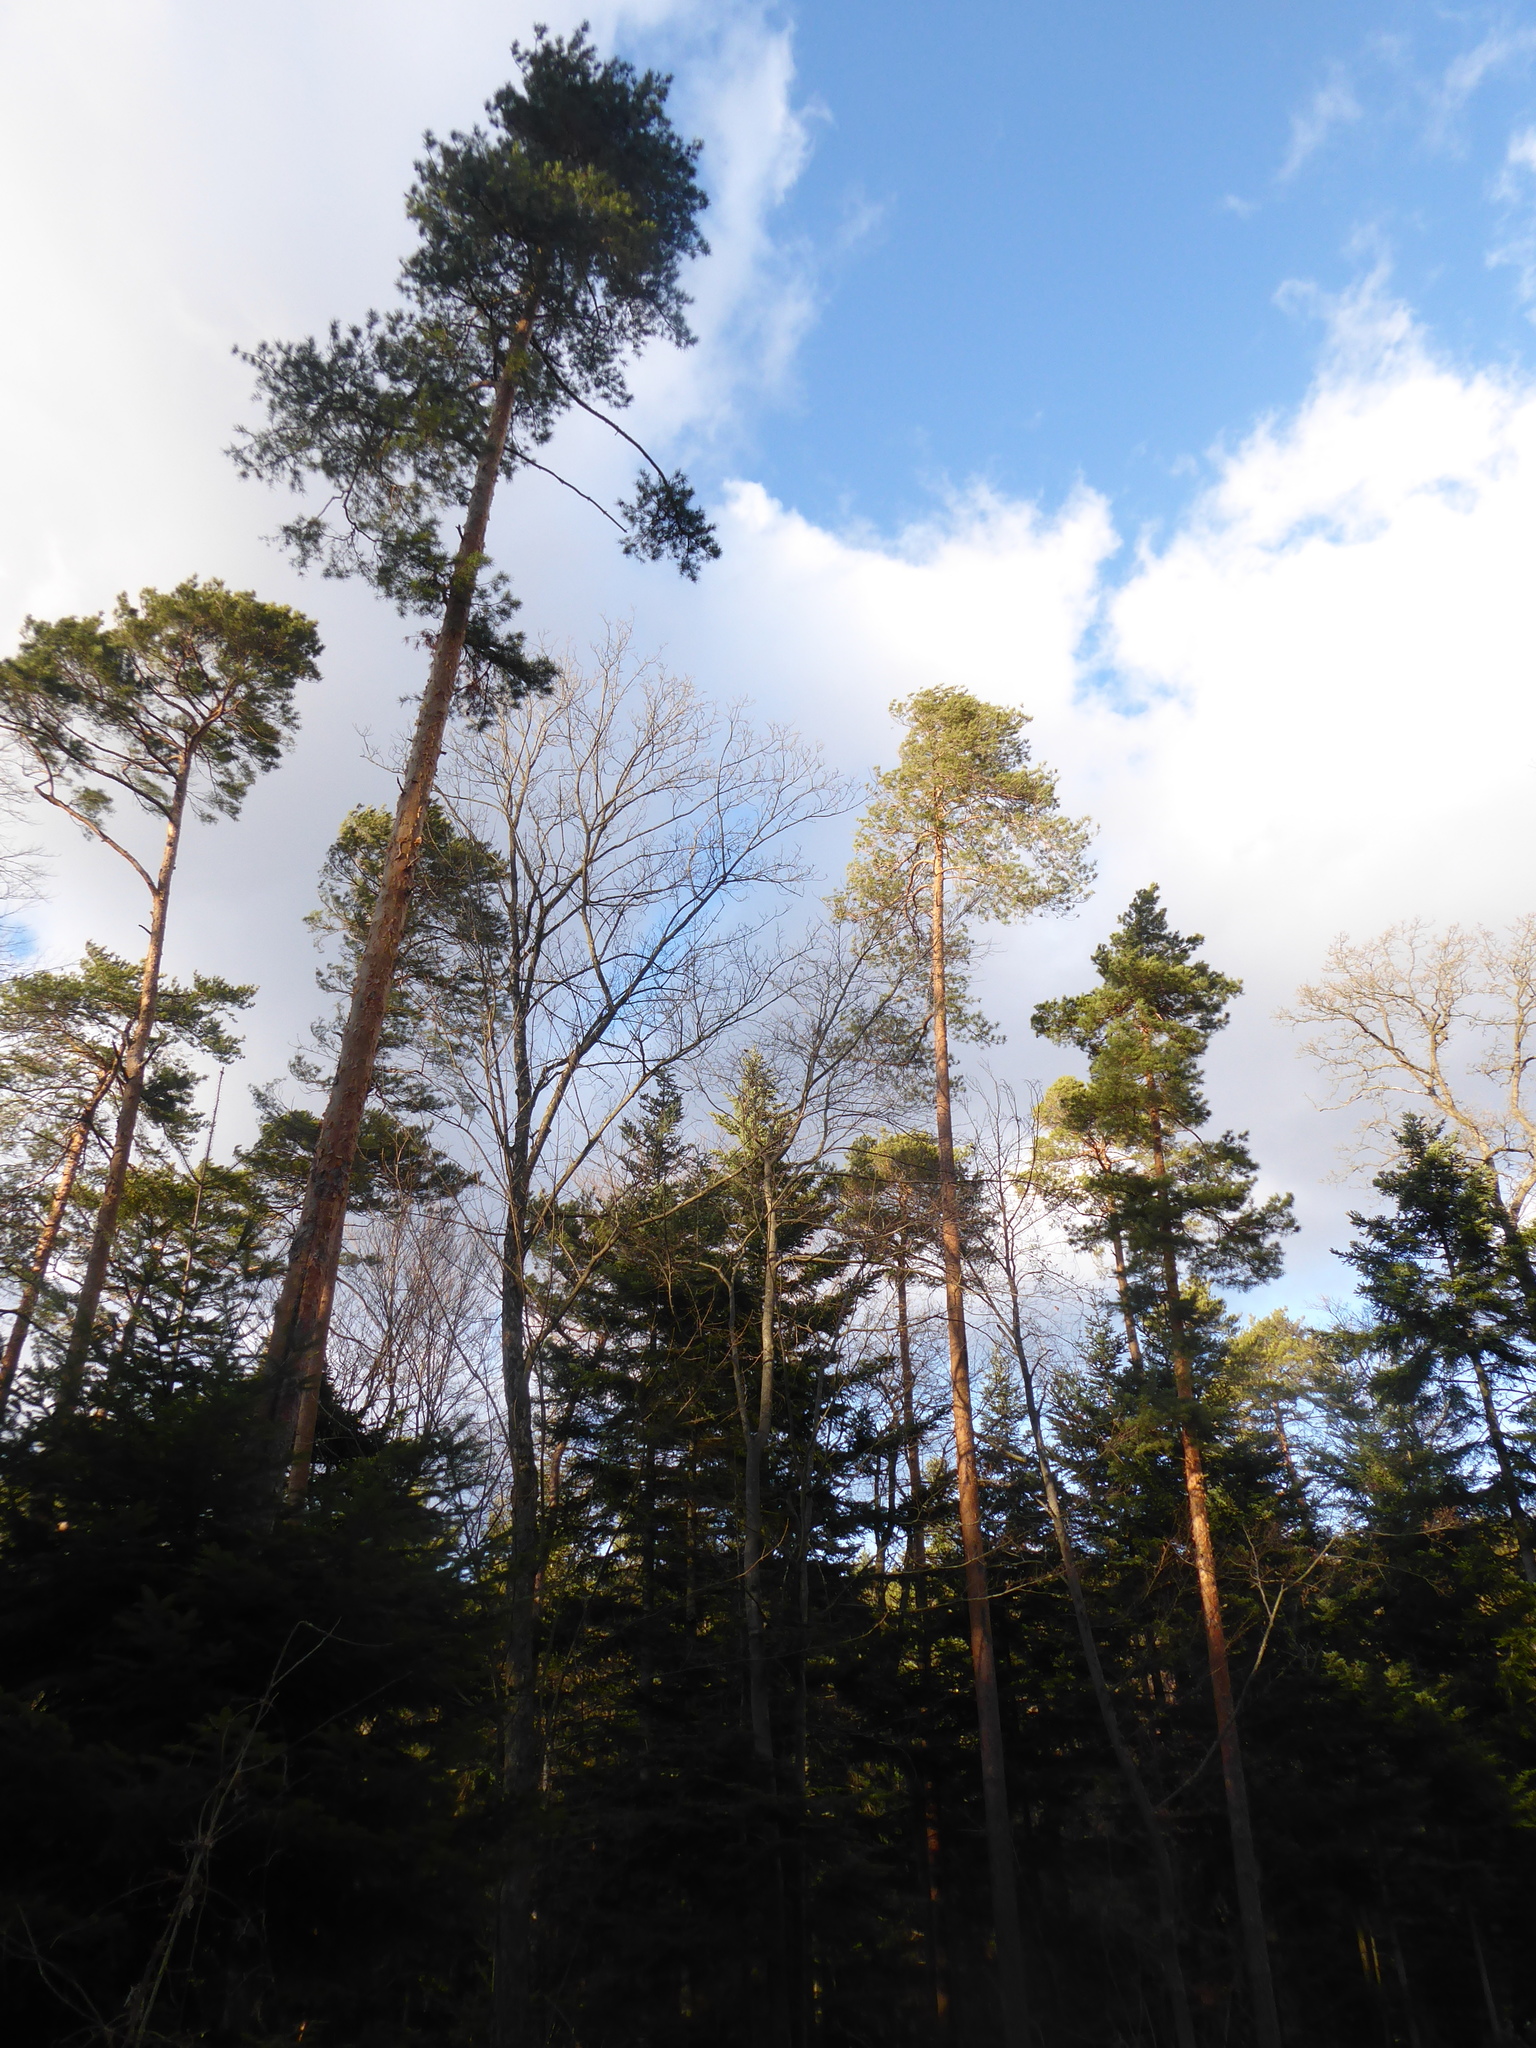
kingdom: Plantae
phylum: Tracheophyta
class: Pinopsida
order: Pinales
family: Pinaceae
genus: Pinus
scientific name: Pinus sylvestris
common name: Scots pine
